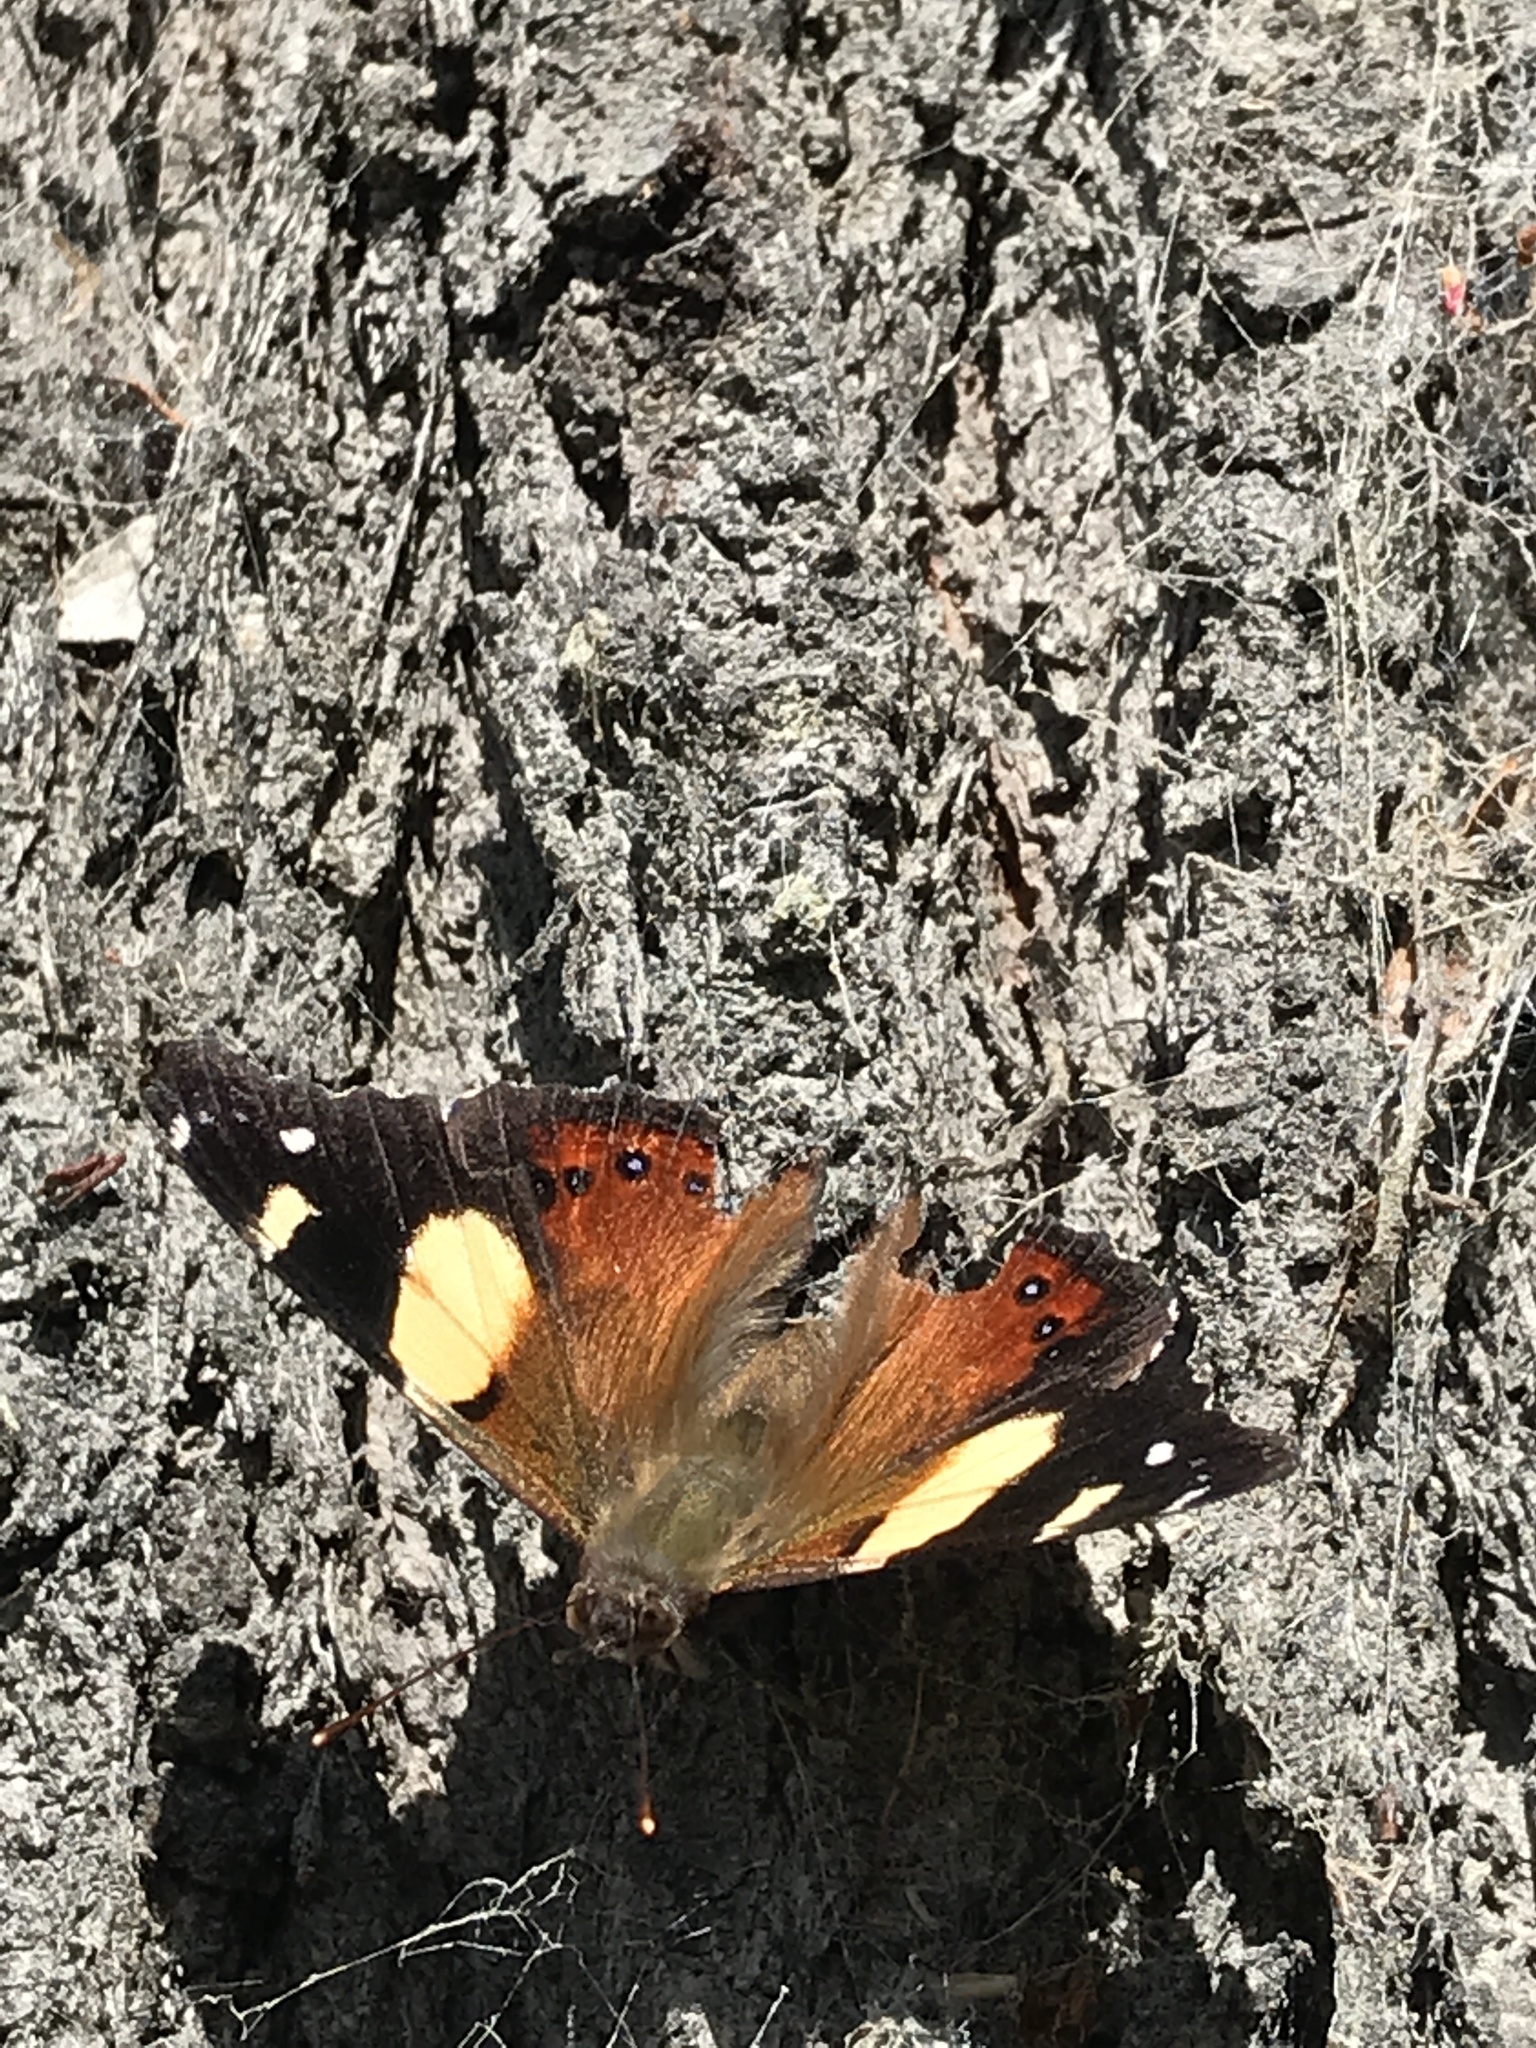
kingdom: Animalia
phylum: Arthropoda
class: Insecta
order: Lepidoptera
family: Nymphalidae
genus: Vanessa
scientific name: Vanessa itea
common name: Yellow admiral
